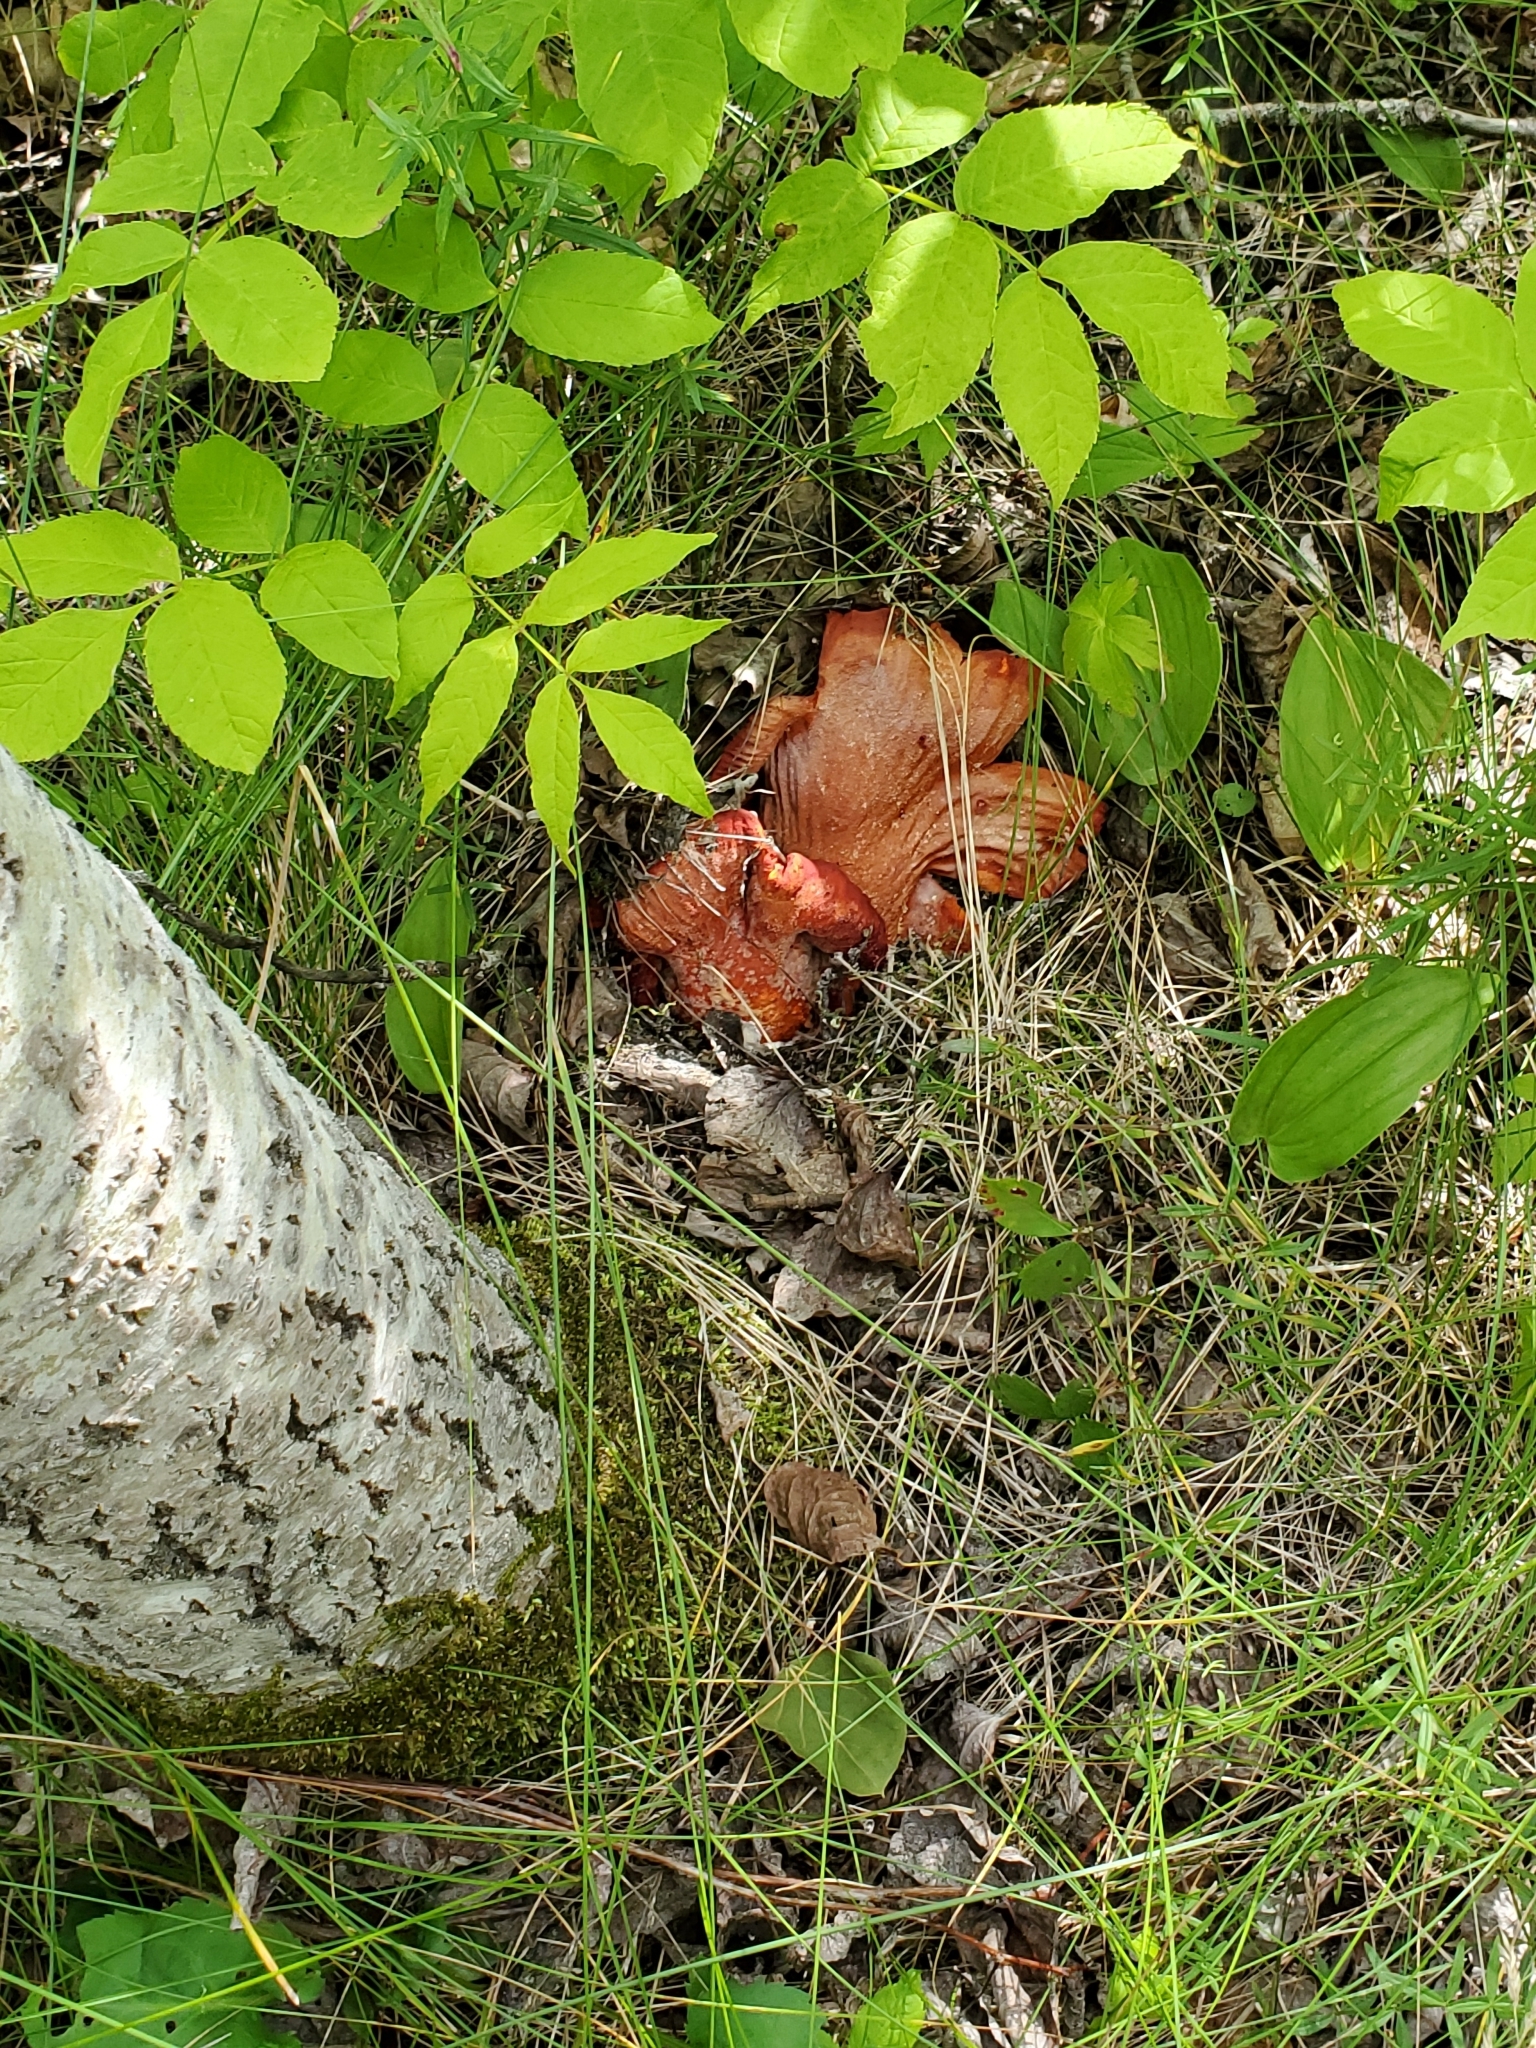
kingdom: Fungi
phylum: Ascomycota
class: Sordariomycetes
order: Hypocreales
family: Hypocreaceae
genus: Hypomyces
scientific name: Hypomyces lactifluorum
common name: Lobster mushroom
